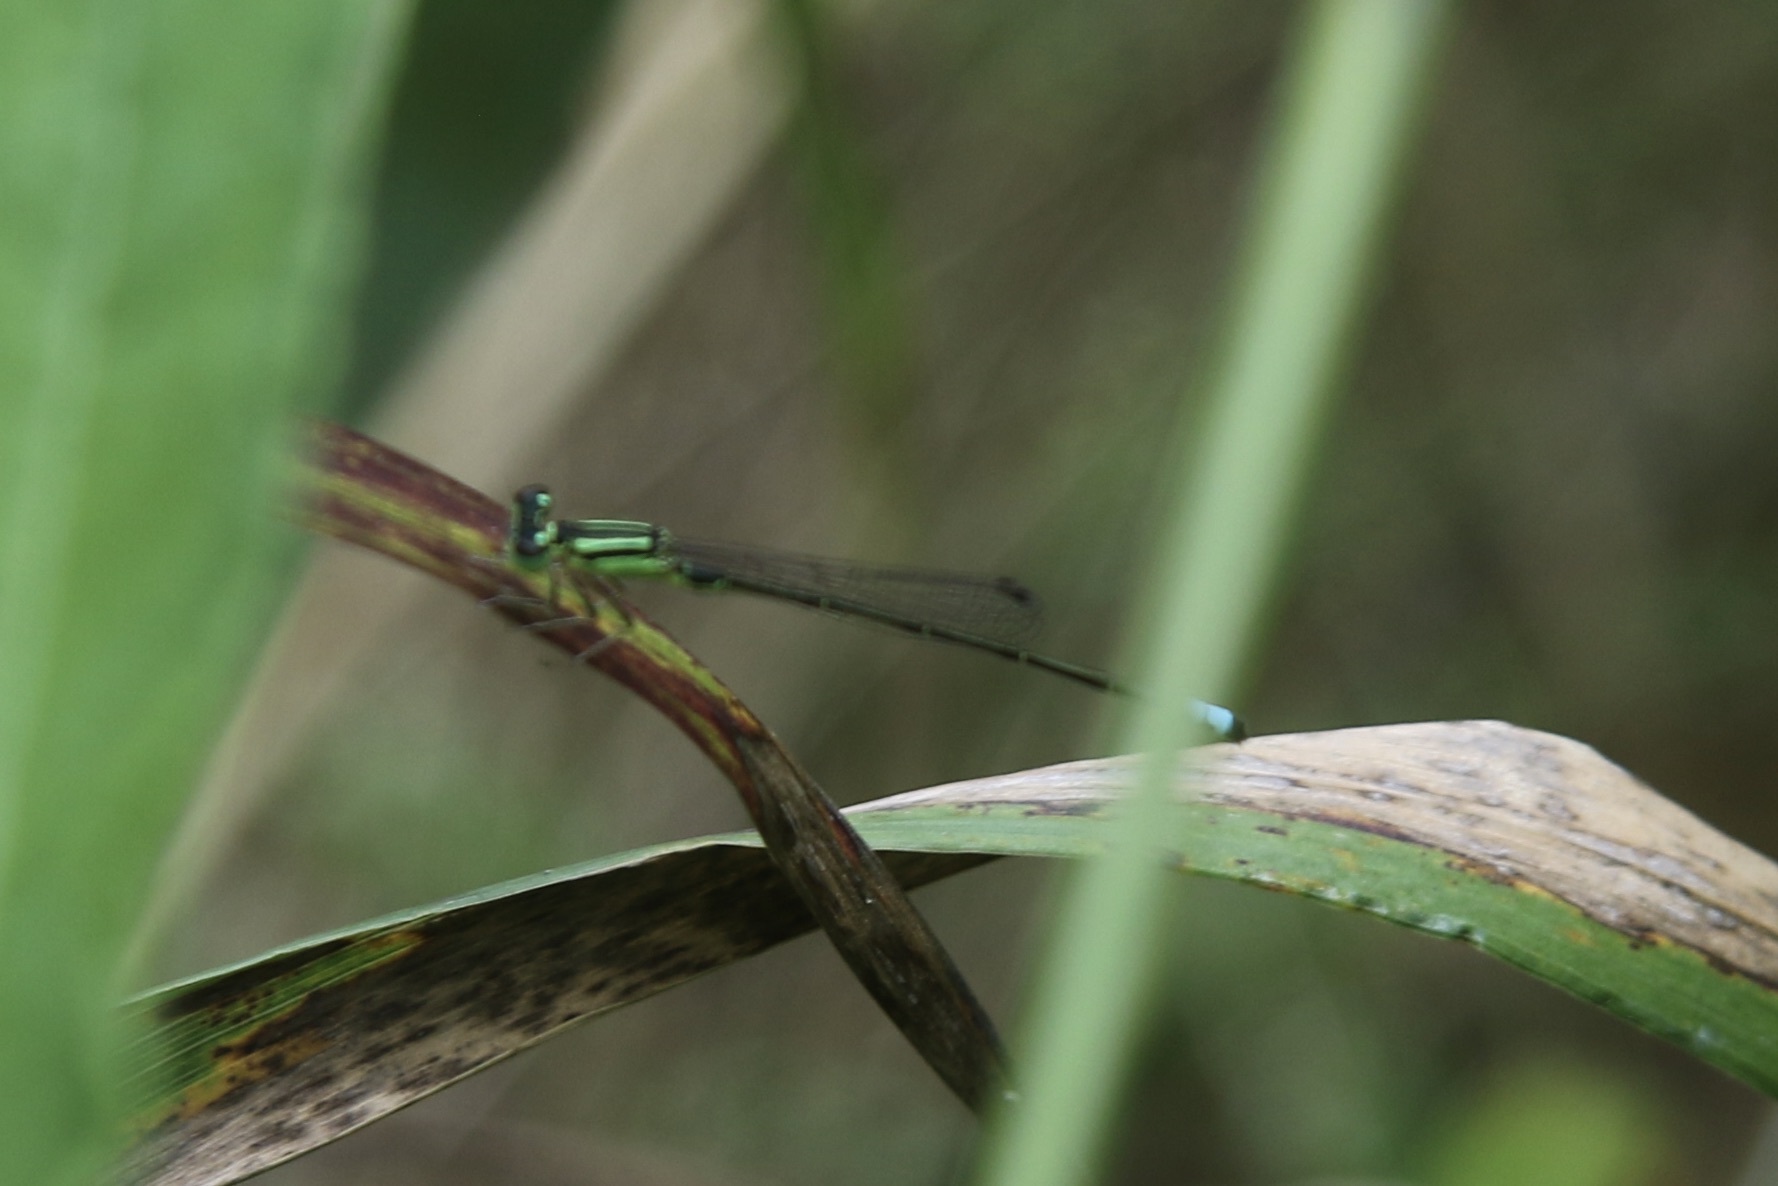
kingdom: Animalia
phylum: Arthropoda
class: Insecta
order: Odonata
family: Coenagrionidae
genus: Ischnura
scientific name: Ischnura verticalis
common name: Eastern forktail
